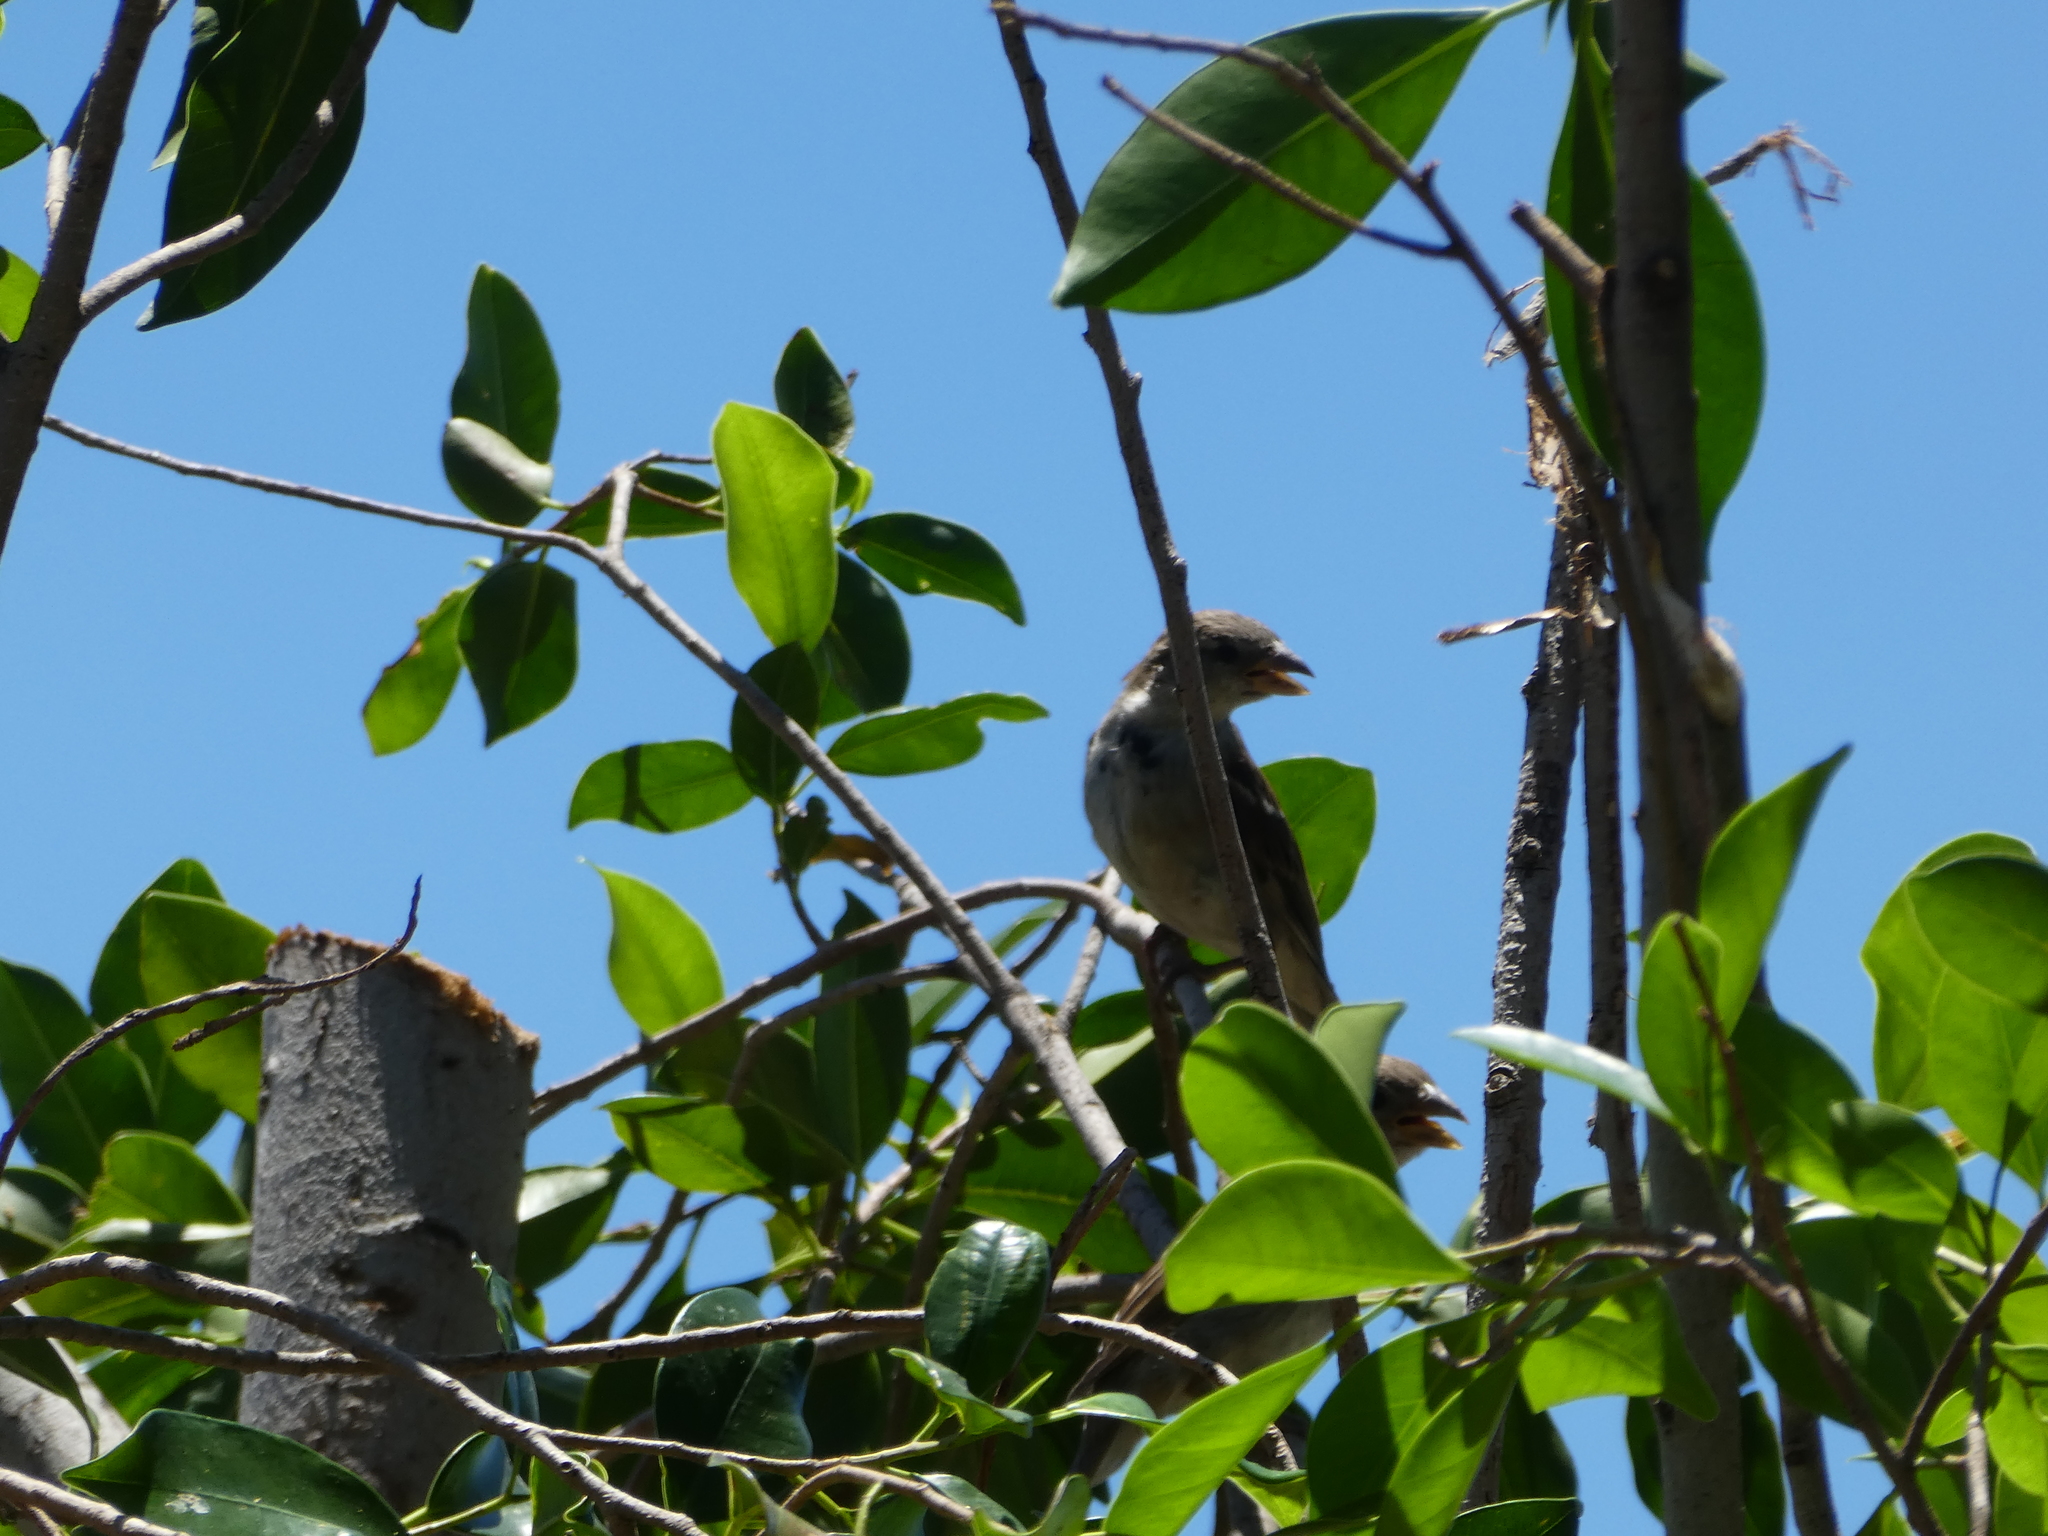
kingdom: Animalia
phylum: Chordata
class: Aves
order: Passeriformes
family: Passeridae
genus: Passer
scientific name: Passer domesticus
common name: House sparrow
